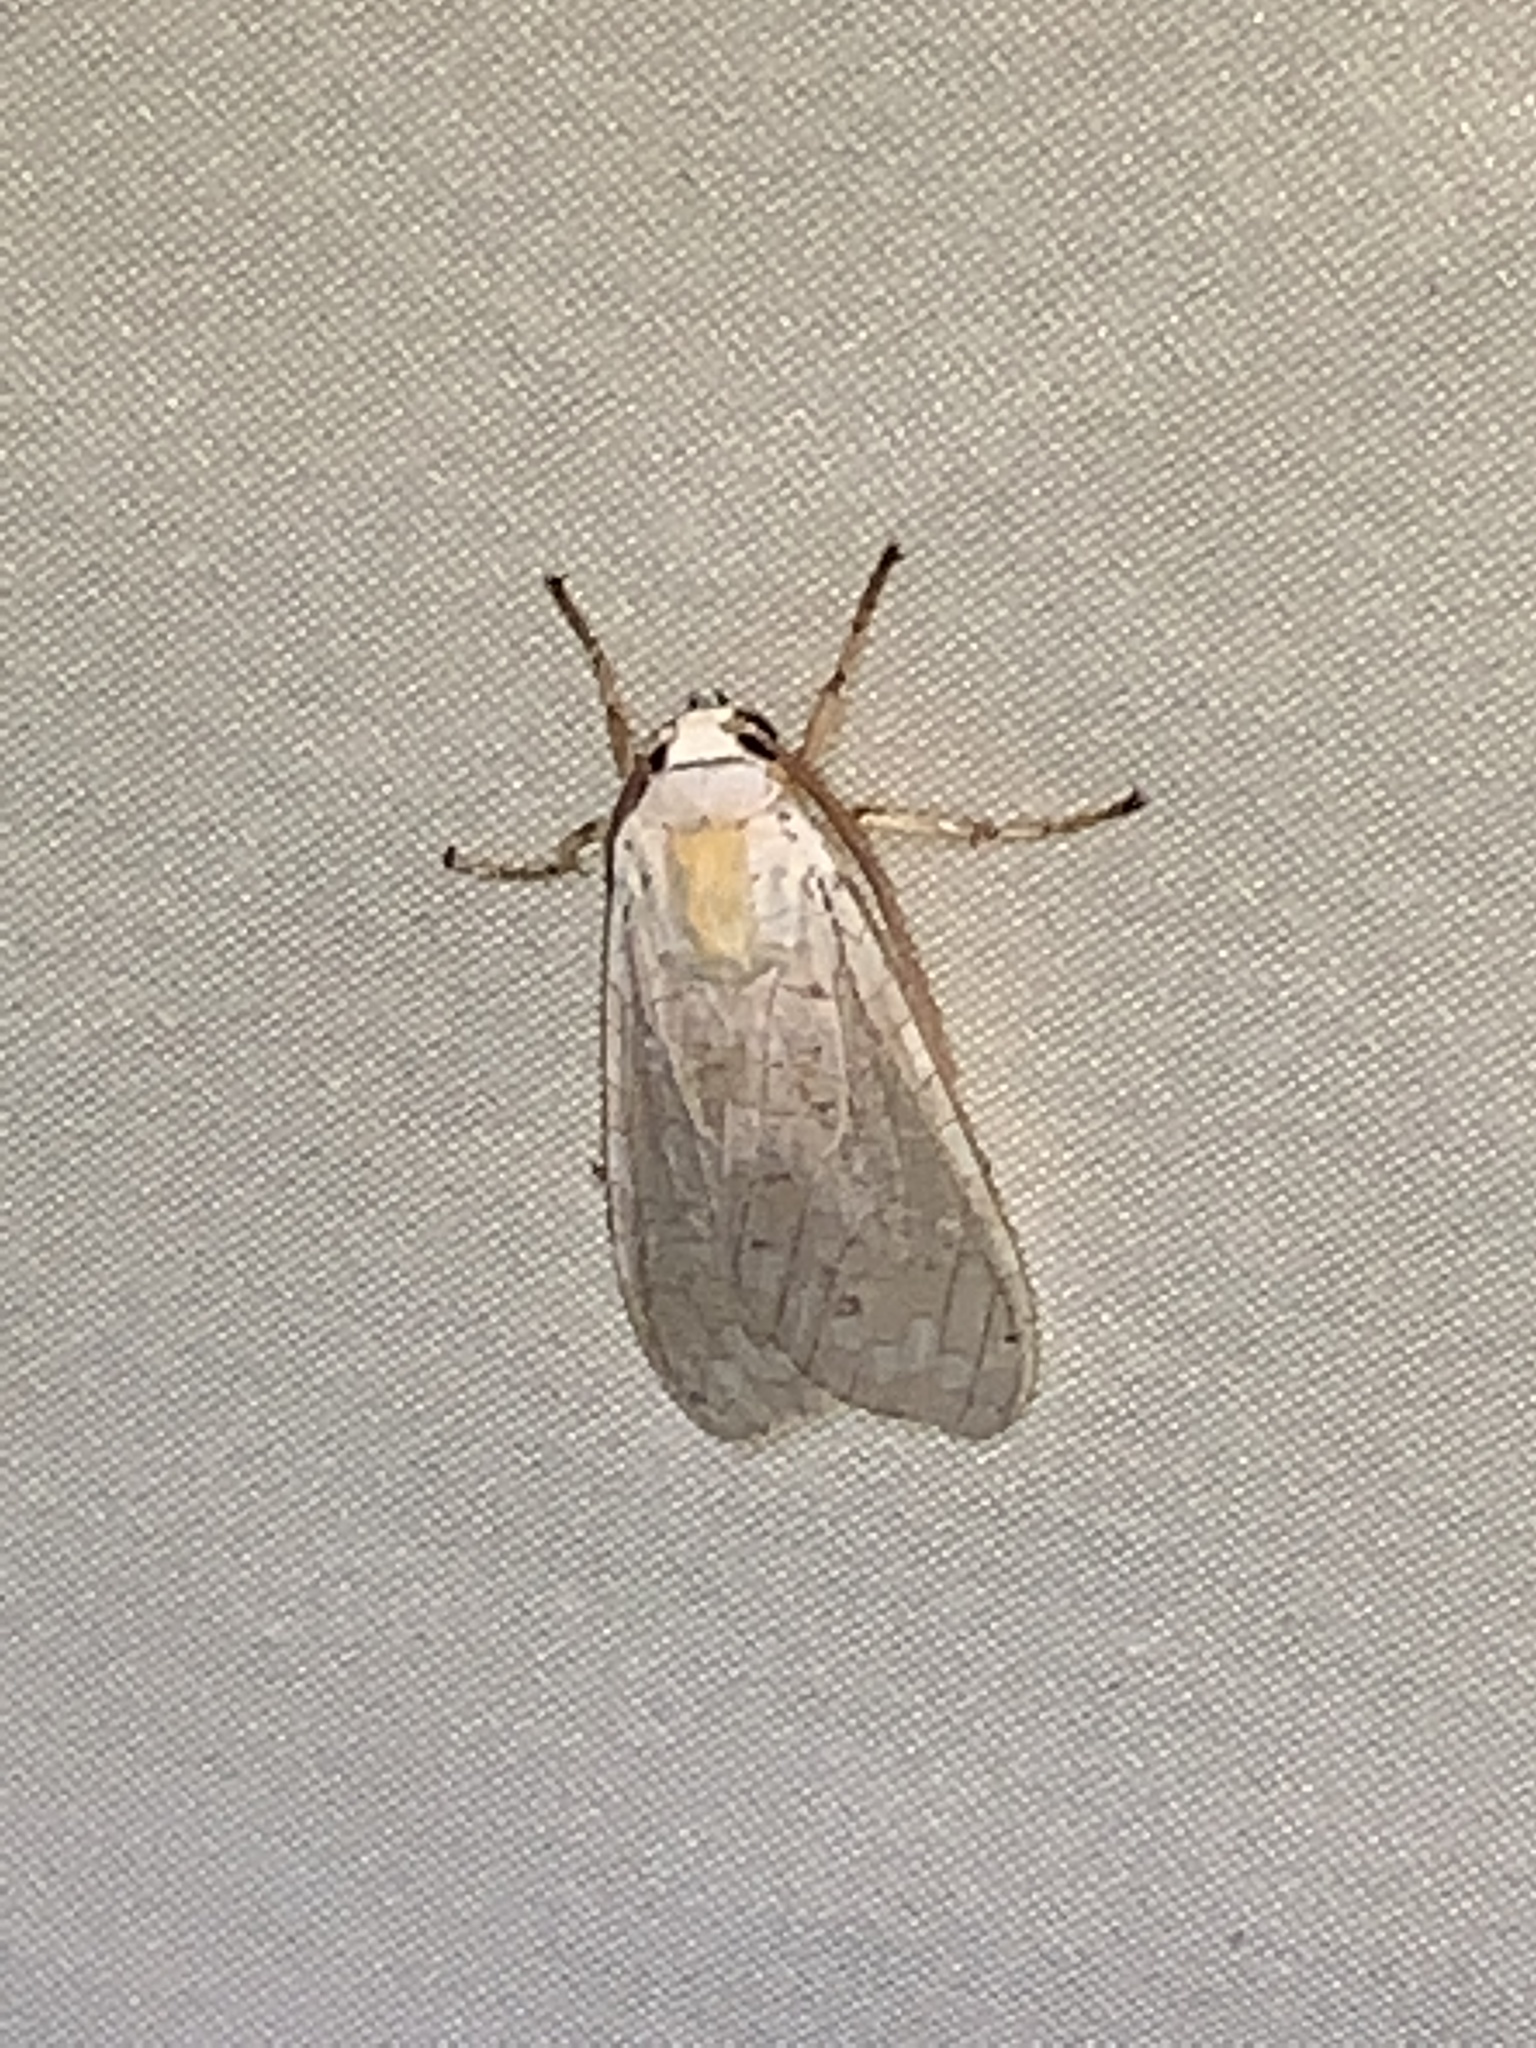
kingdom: Animalia
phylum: Arthropoda
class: Insecta
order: Lepidoptera
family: Erebidae
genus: Halysidota
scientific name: Halysidota
